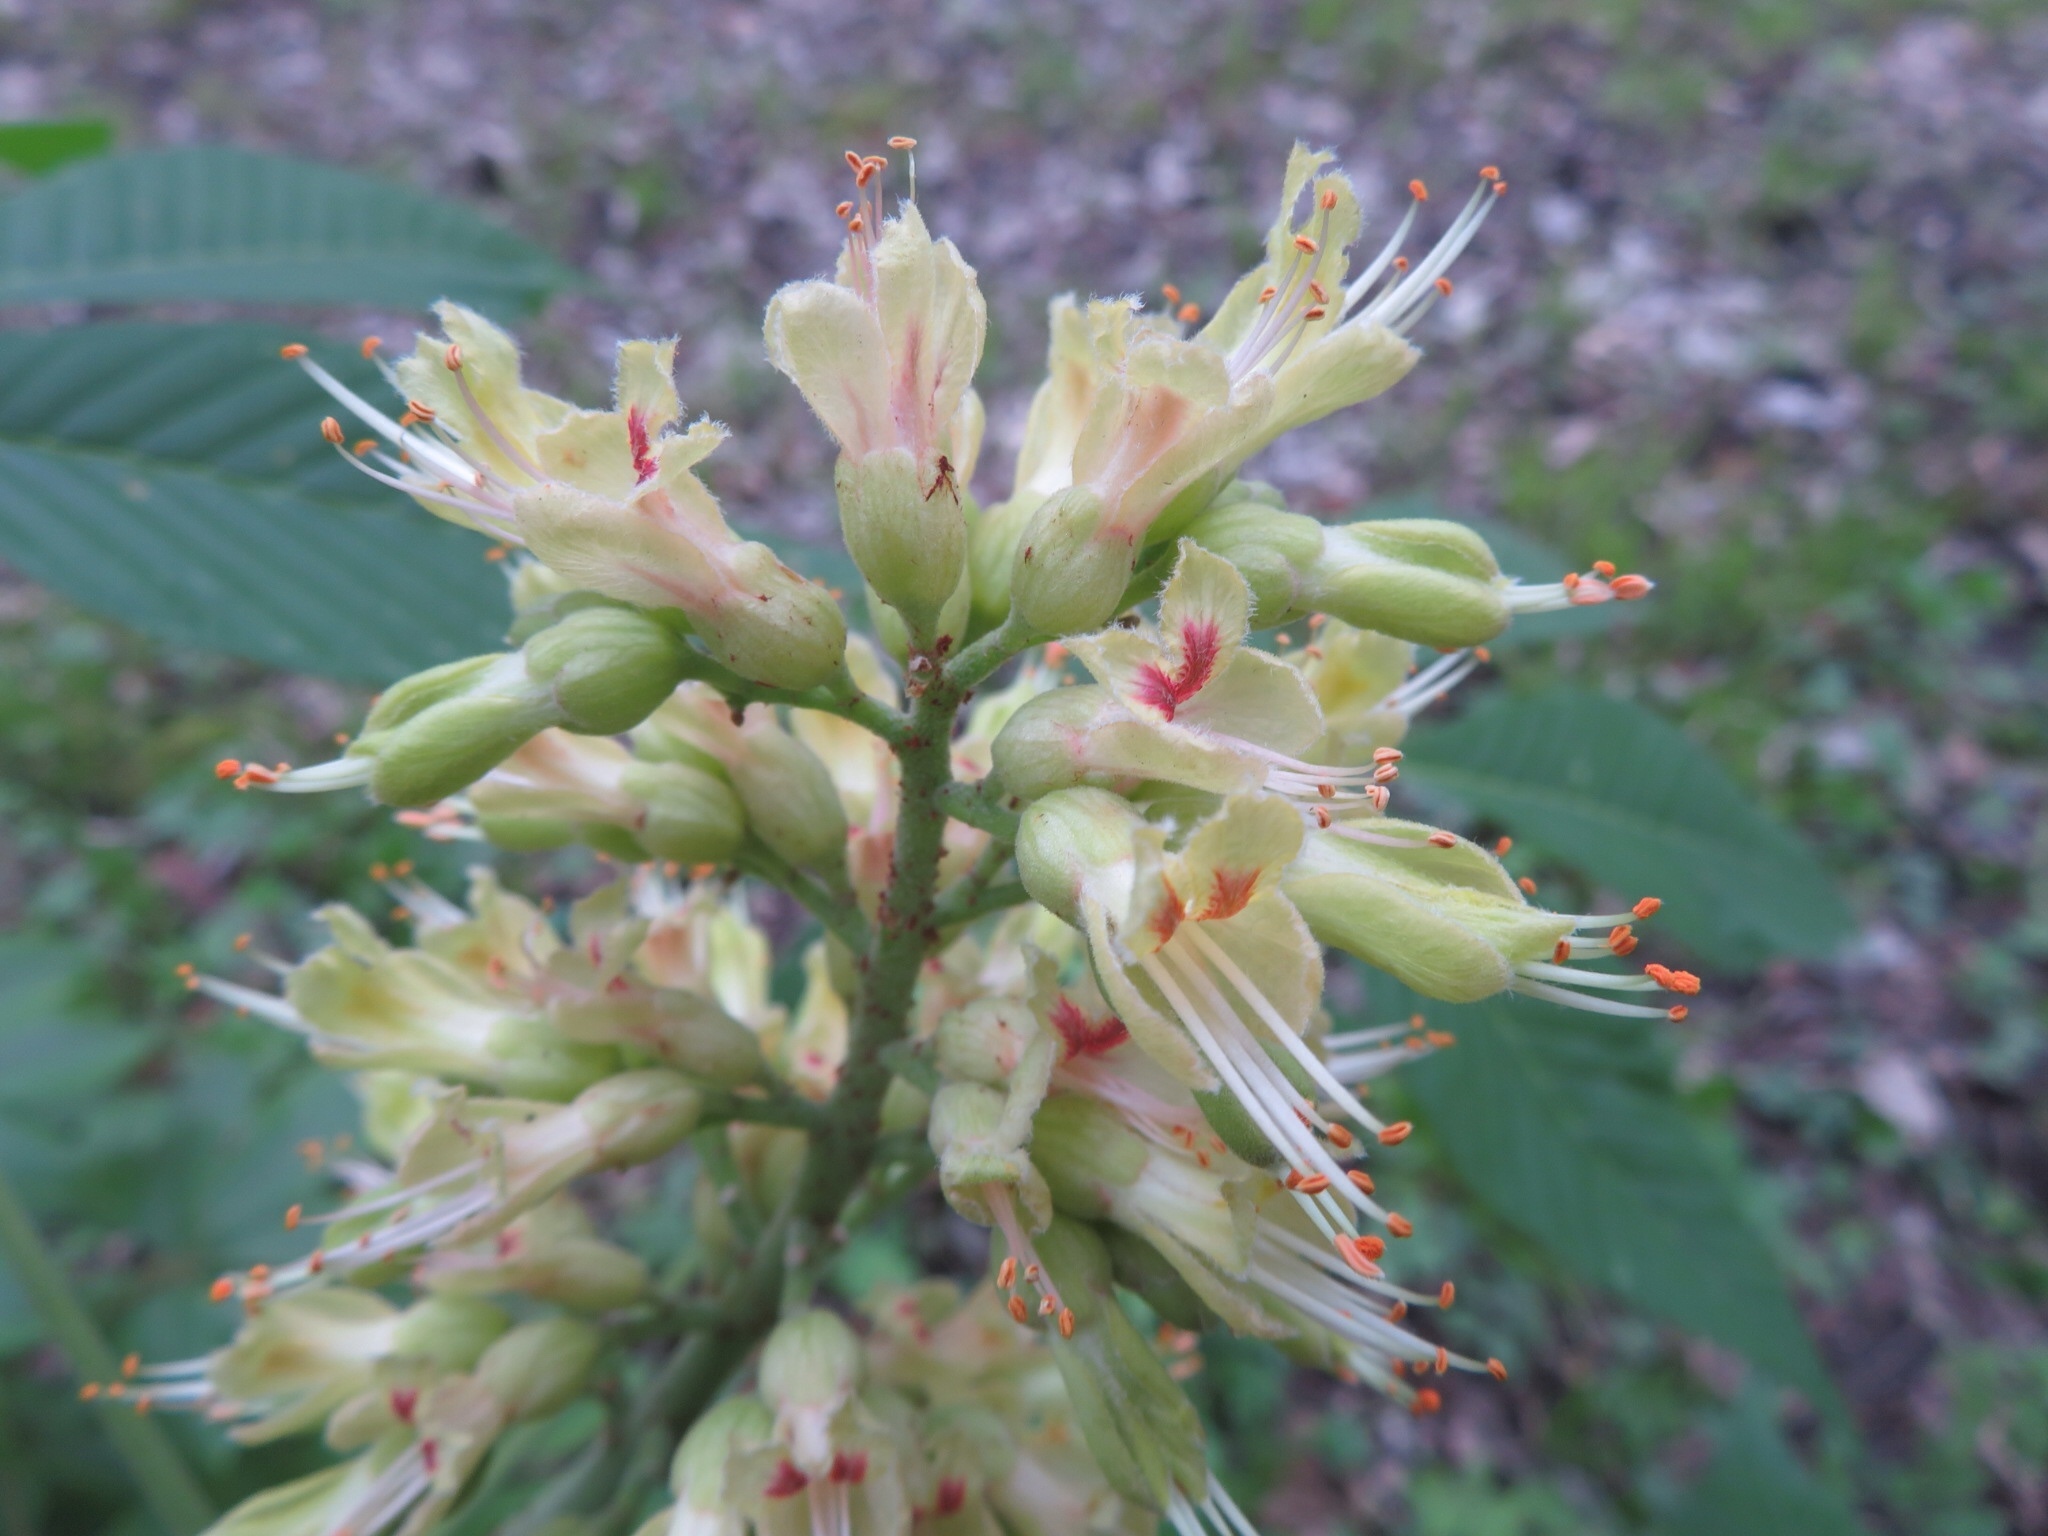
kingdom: Plantae
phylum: Tracheophyta
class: Magnoliopsida
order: Sapindales
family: Sapindaceae
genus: Aesculus
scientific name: Aesculus glabra
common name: Ohio buckeye
